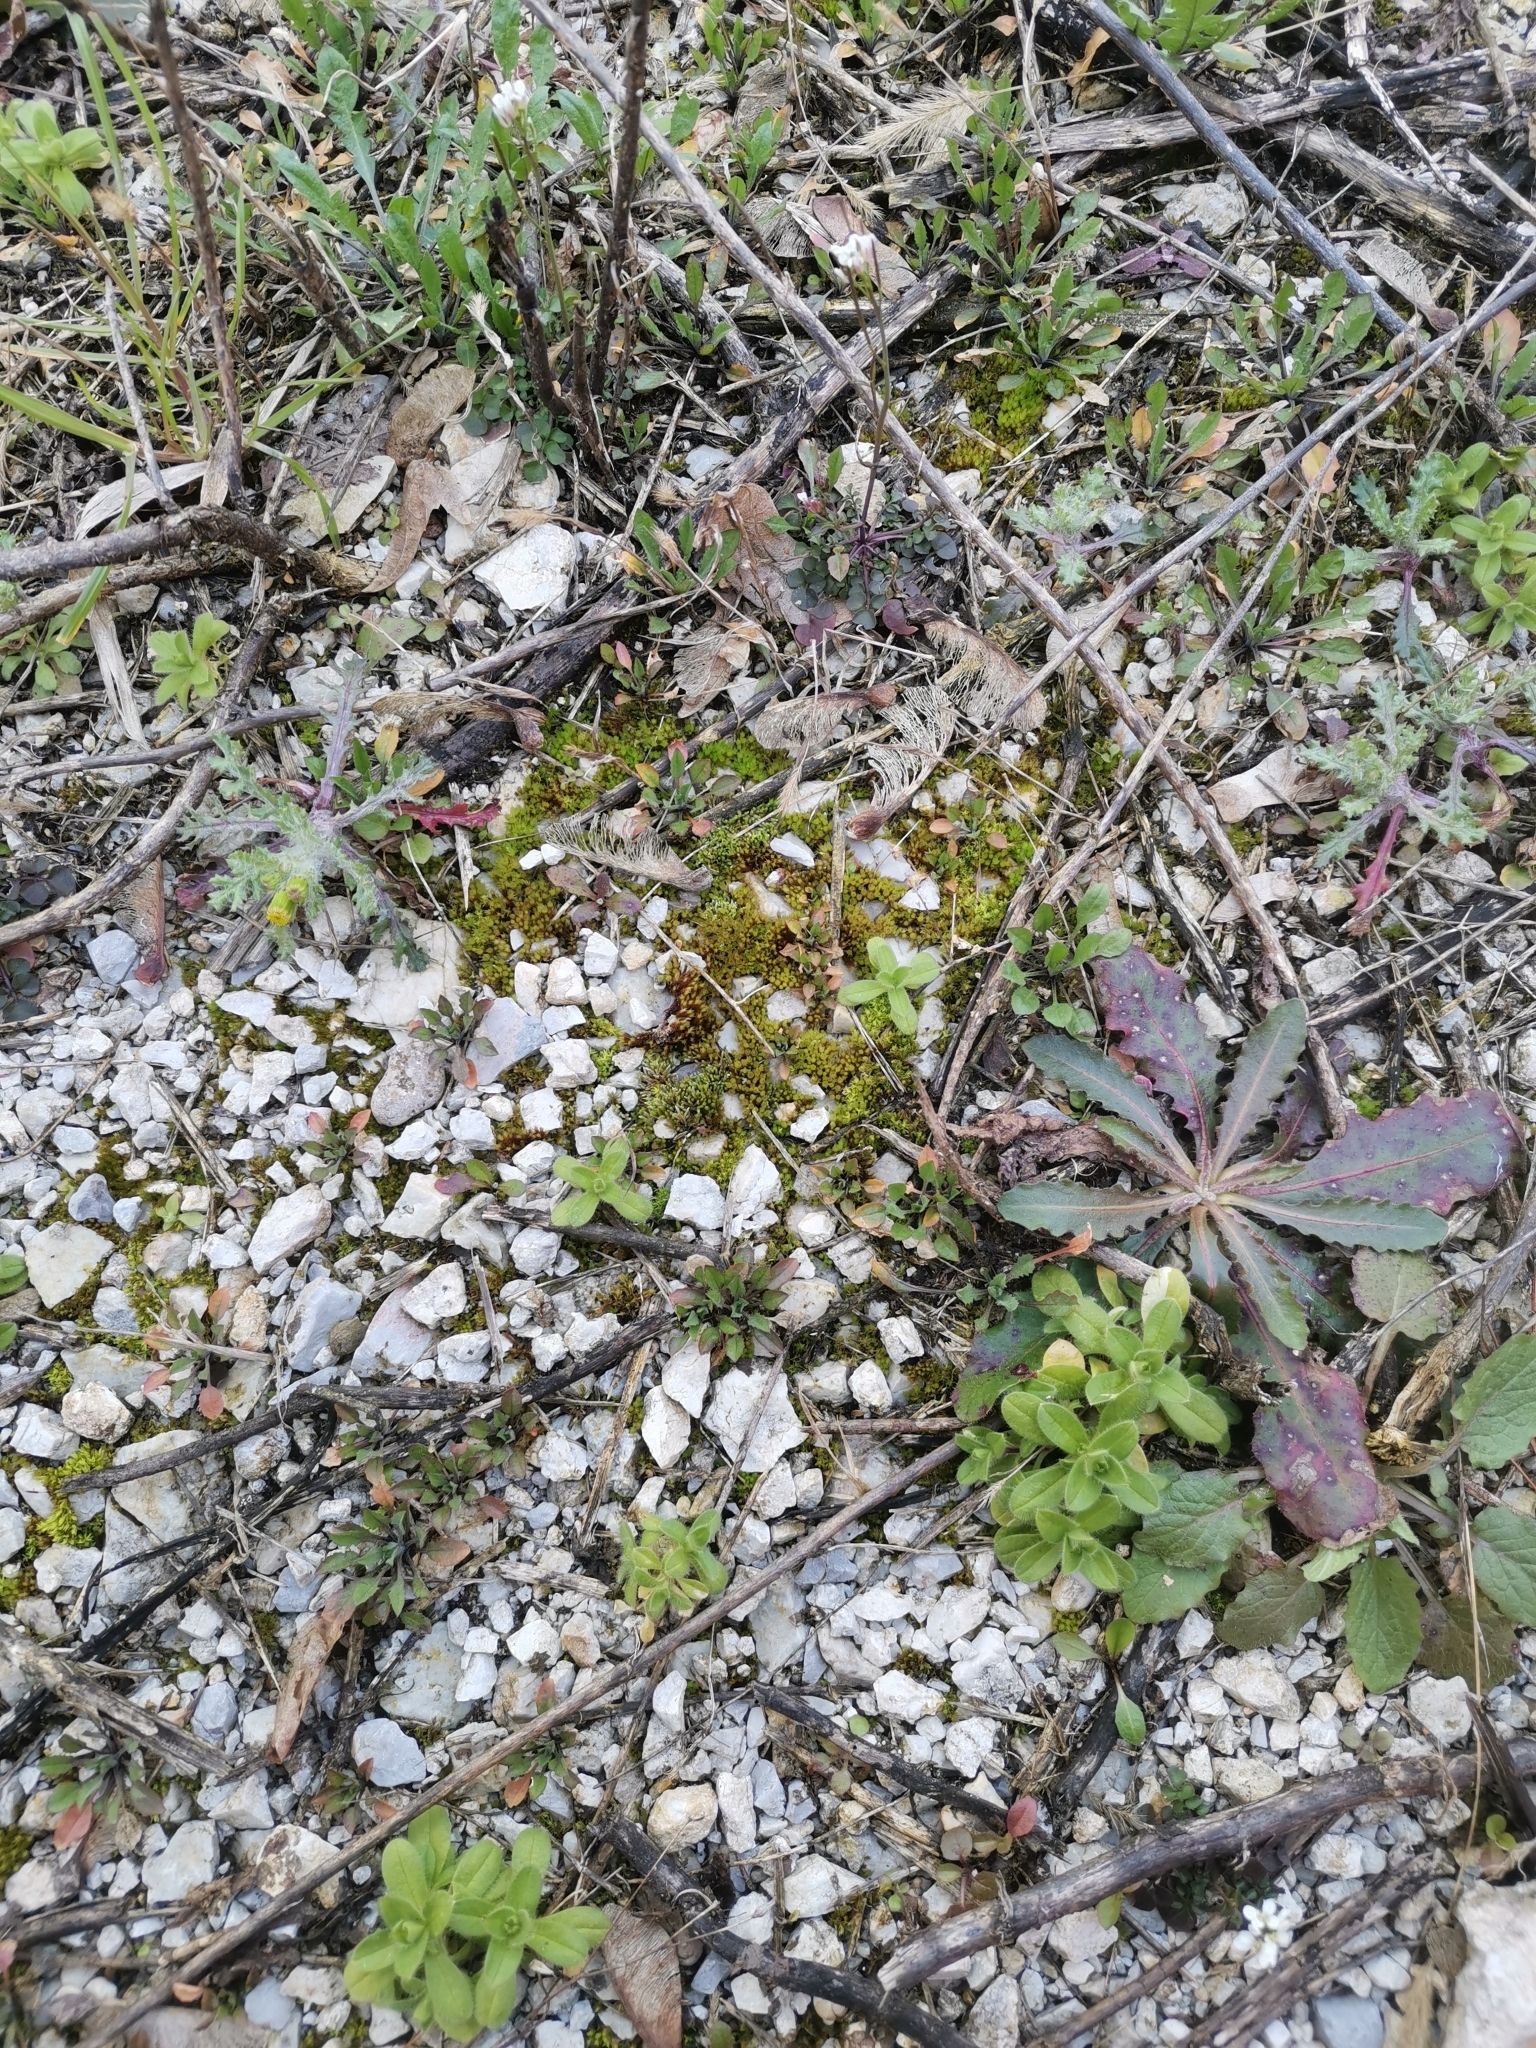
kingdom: Plantae
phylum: Bryophyta
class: Bryopsida
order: Bryales
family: Bryaceae
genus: Gemmabryum
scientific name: Gemmabryum caespiticium
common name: Handbell moss
